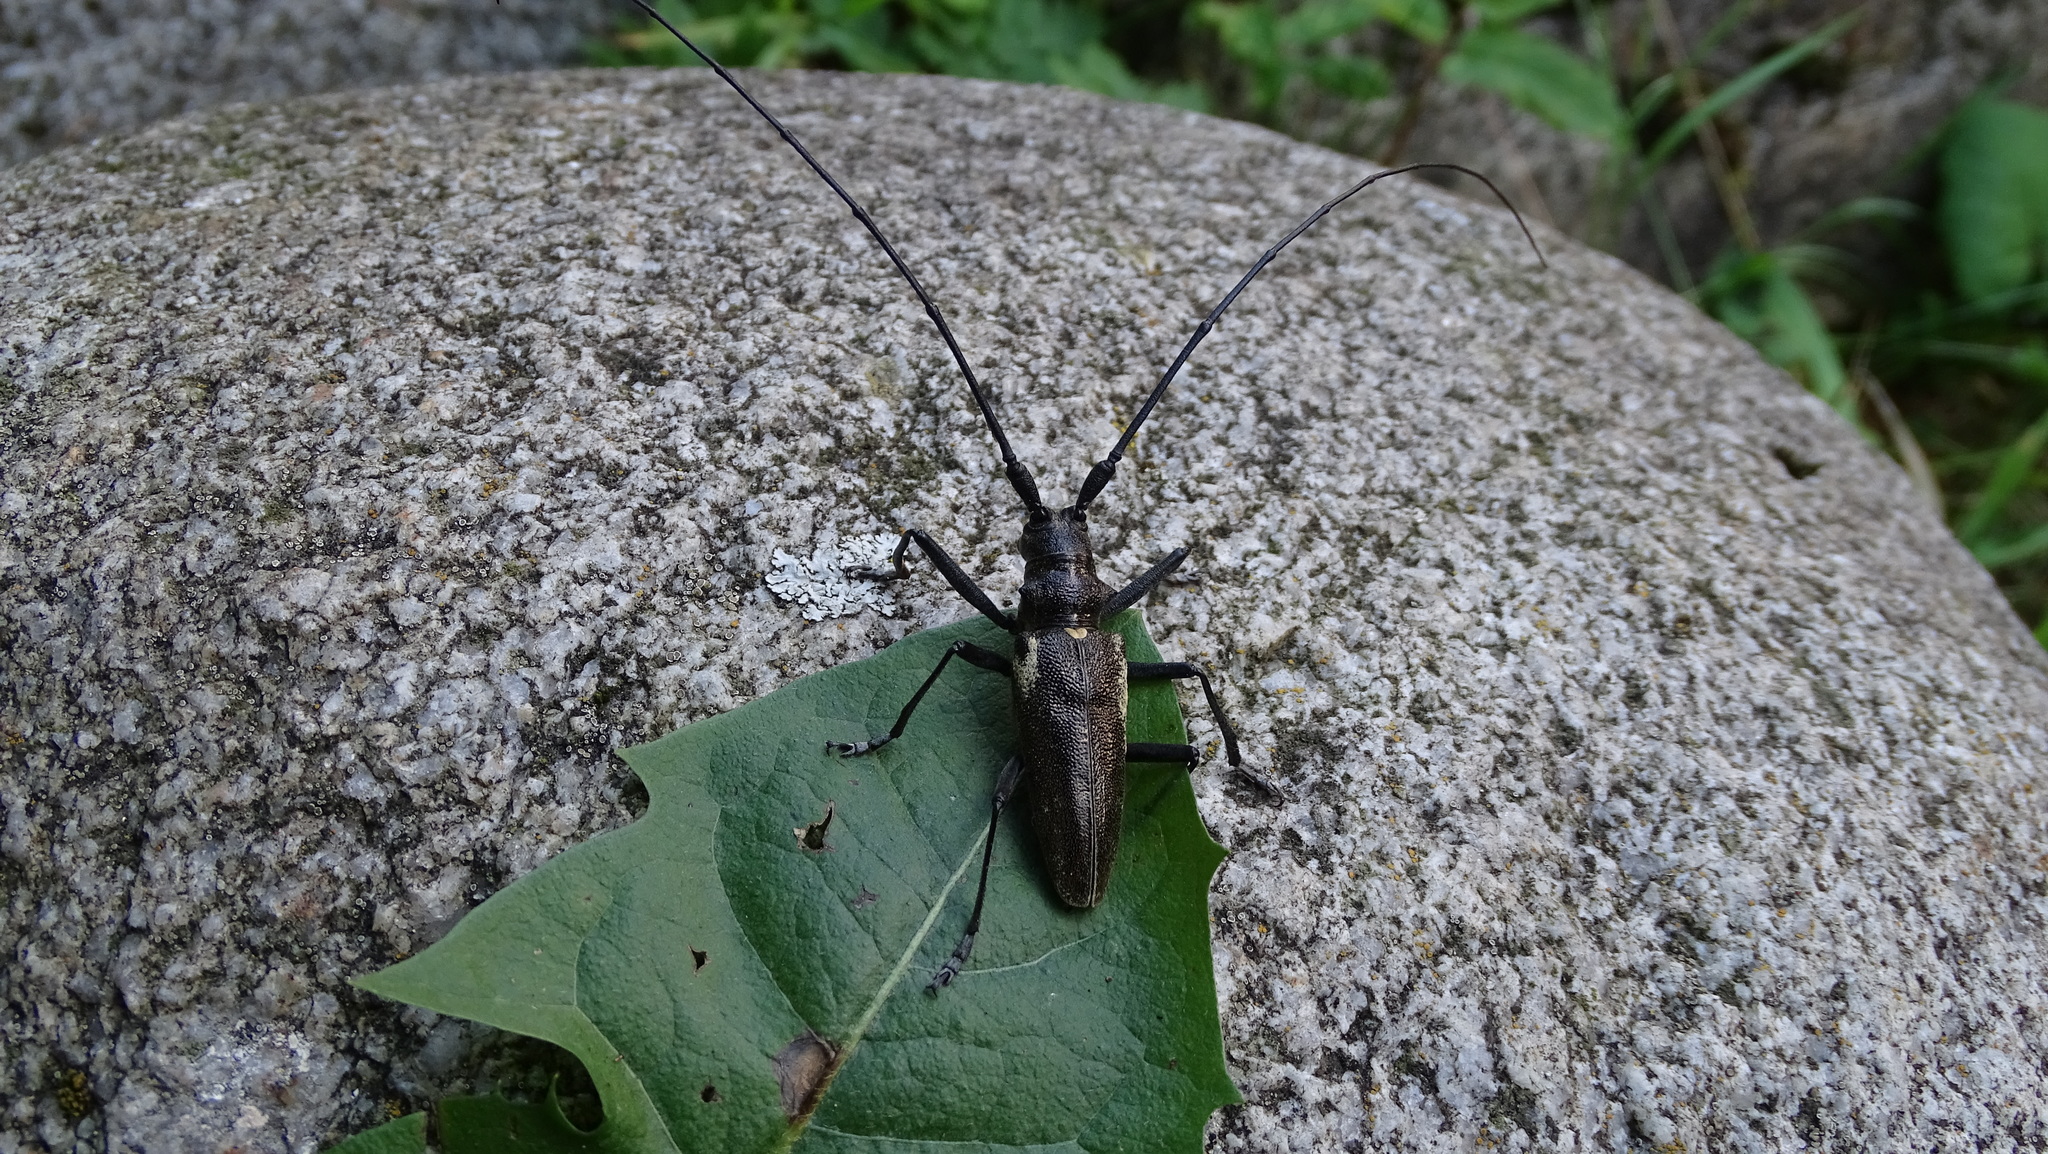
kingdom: Animalia
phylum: Arthropoda
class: Insecta
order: Coleoptera
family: Cerambycidae
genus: Aromia
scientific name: Aromia moschata
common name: Musk beetle
